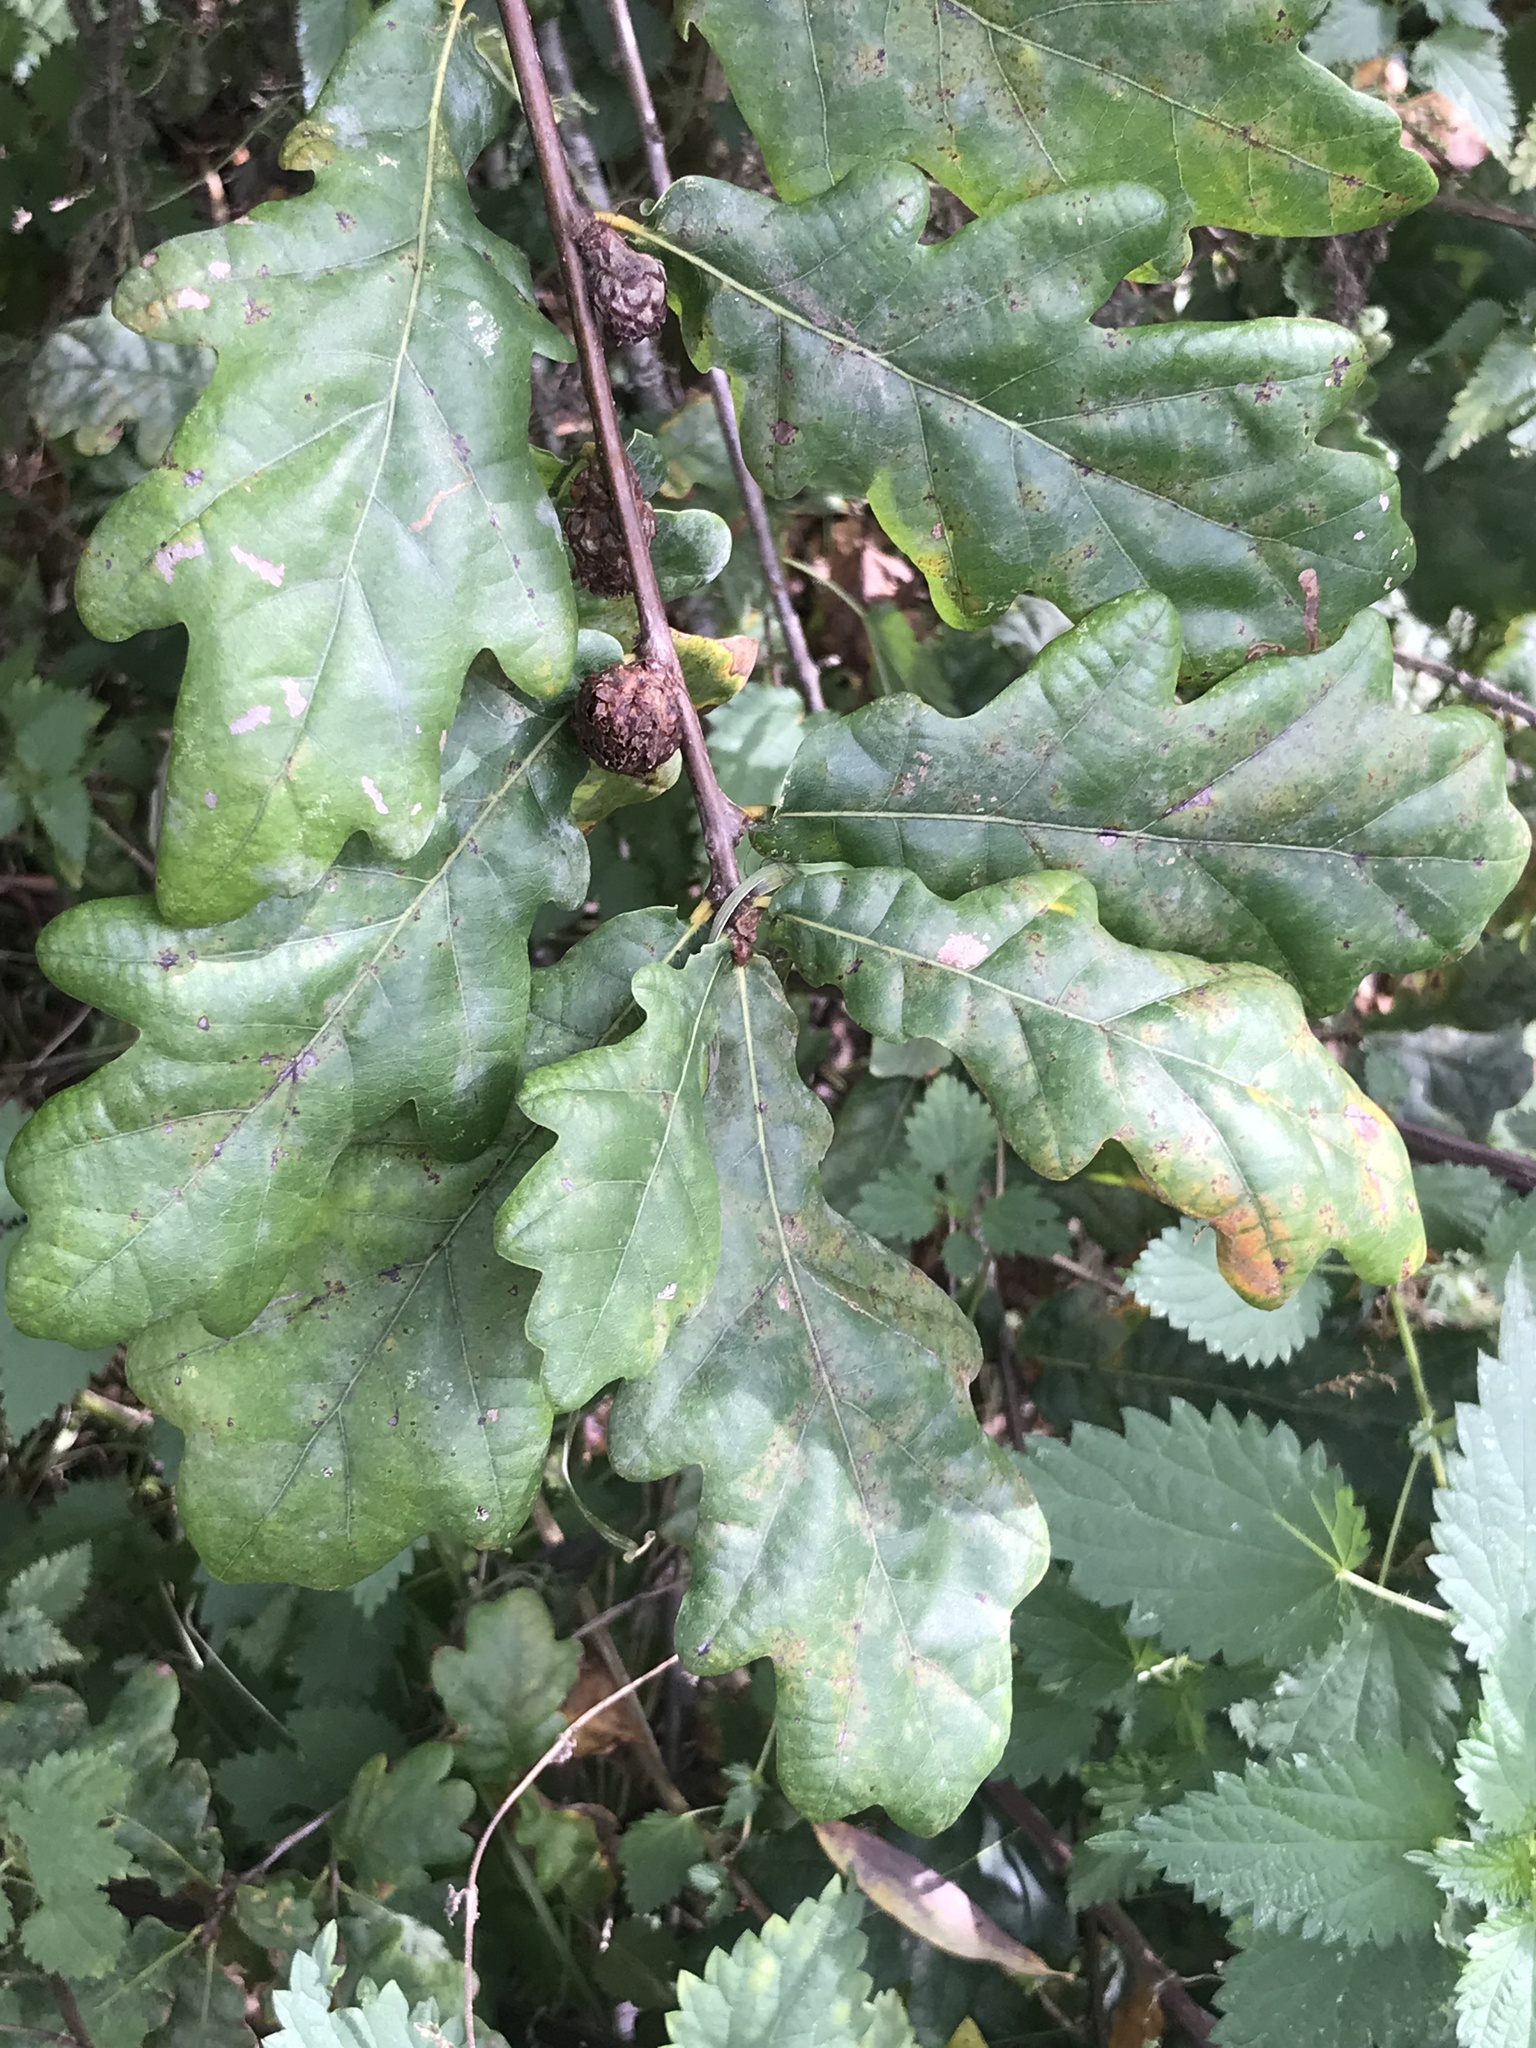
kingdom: Plantae
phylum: Tracheophyta
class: Magnoliopsida
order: Fagales
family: Fagaceae
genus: Quercus
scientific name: Quercus petraea
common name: Sessile oak
